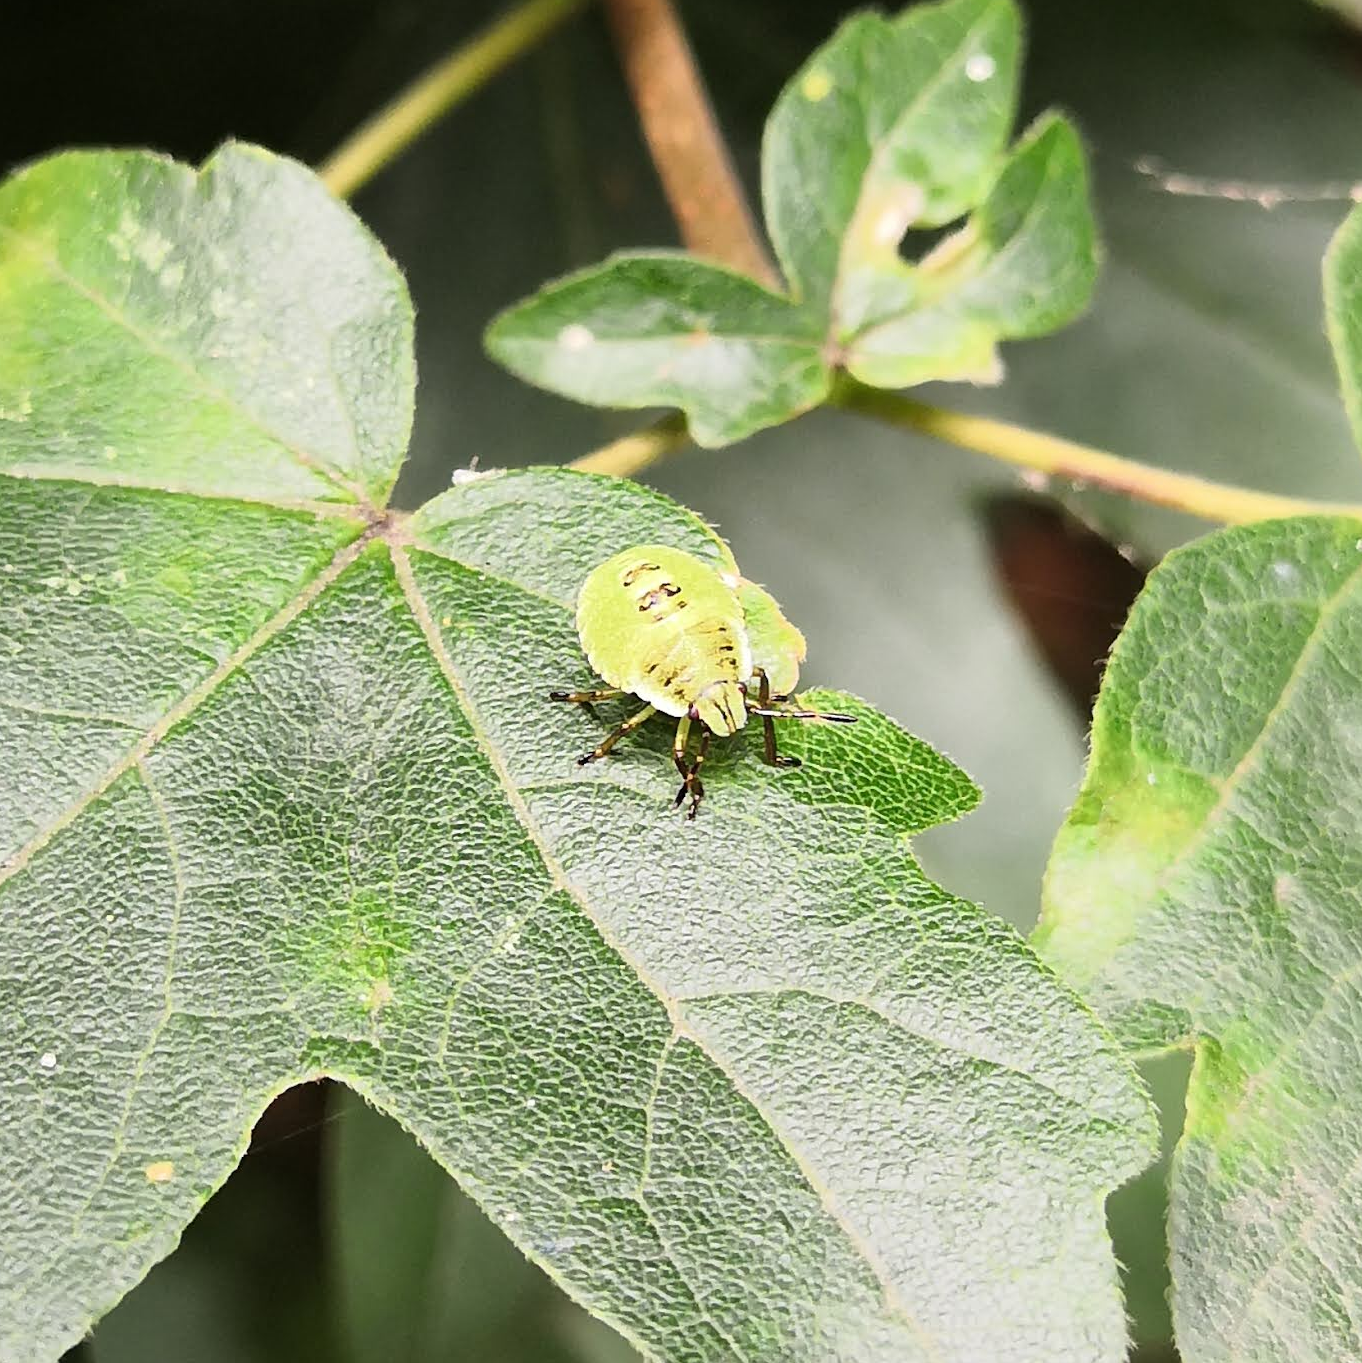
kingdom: Animalia
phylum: Arthropoda
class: Insecta
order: Hemiptera
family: Pentatomidae
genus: Palomena
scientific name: Palomena prasina
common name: Green shieldbug
